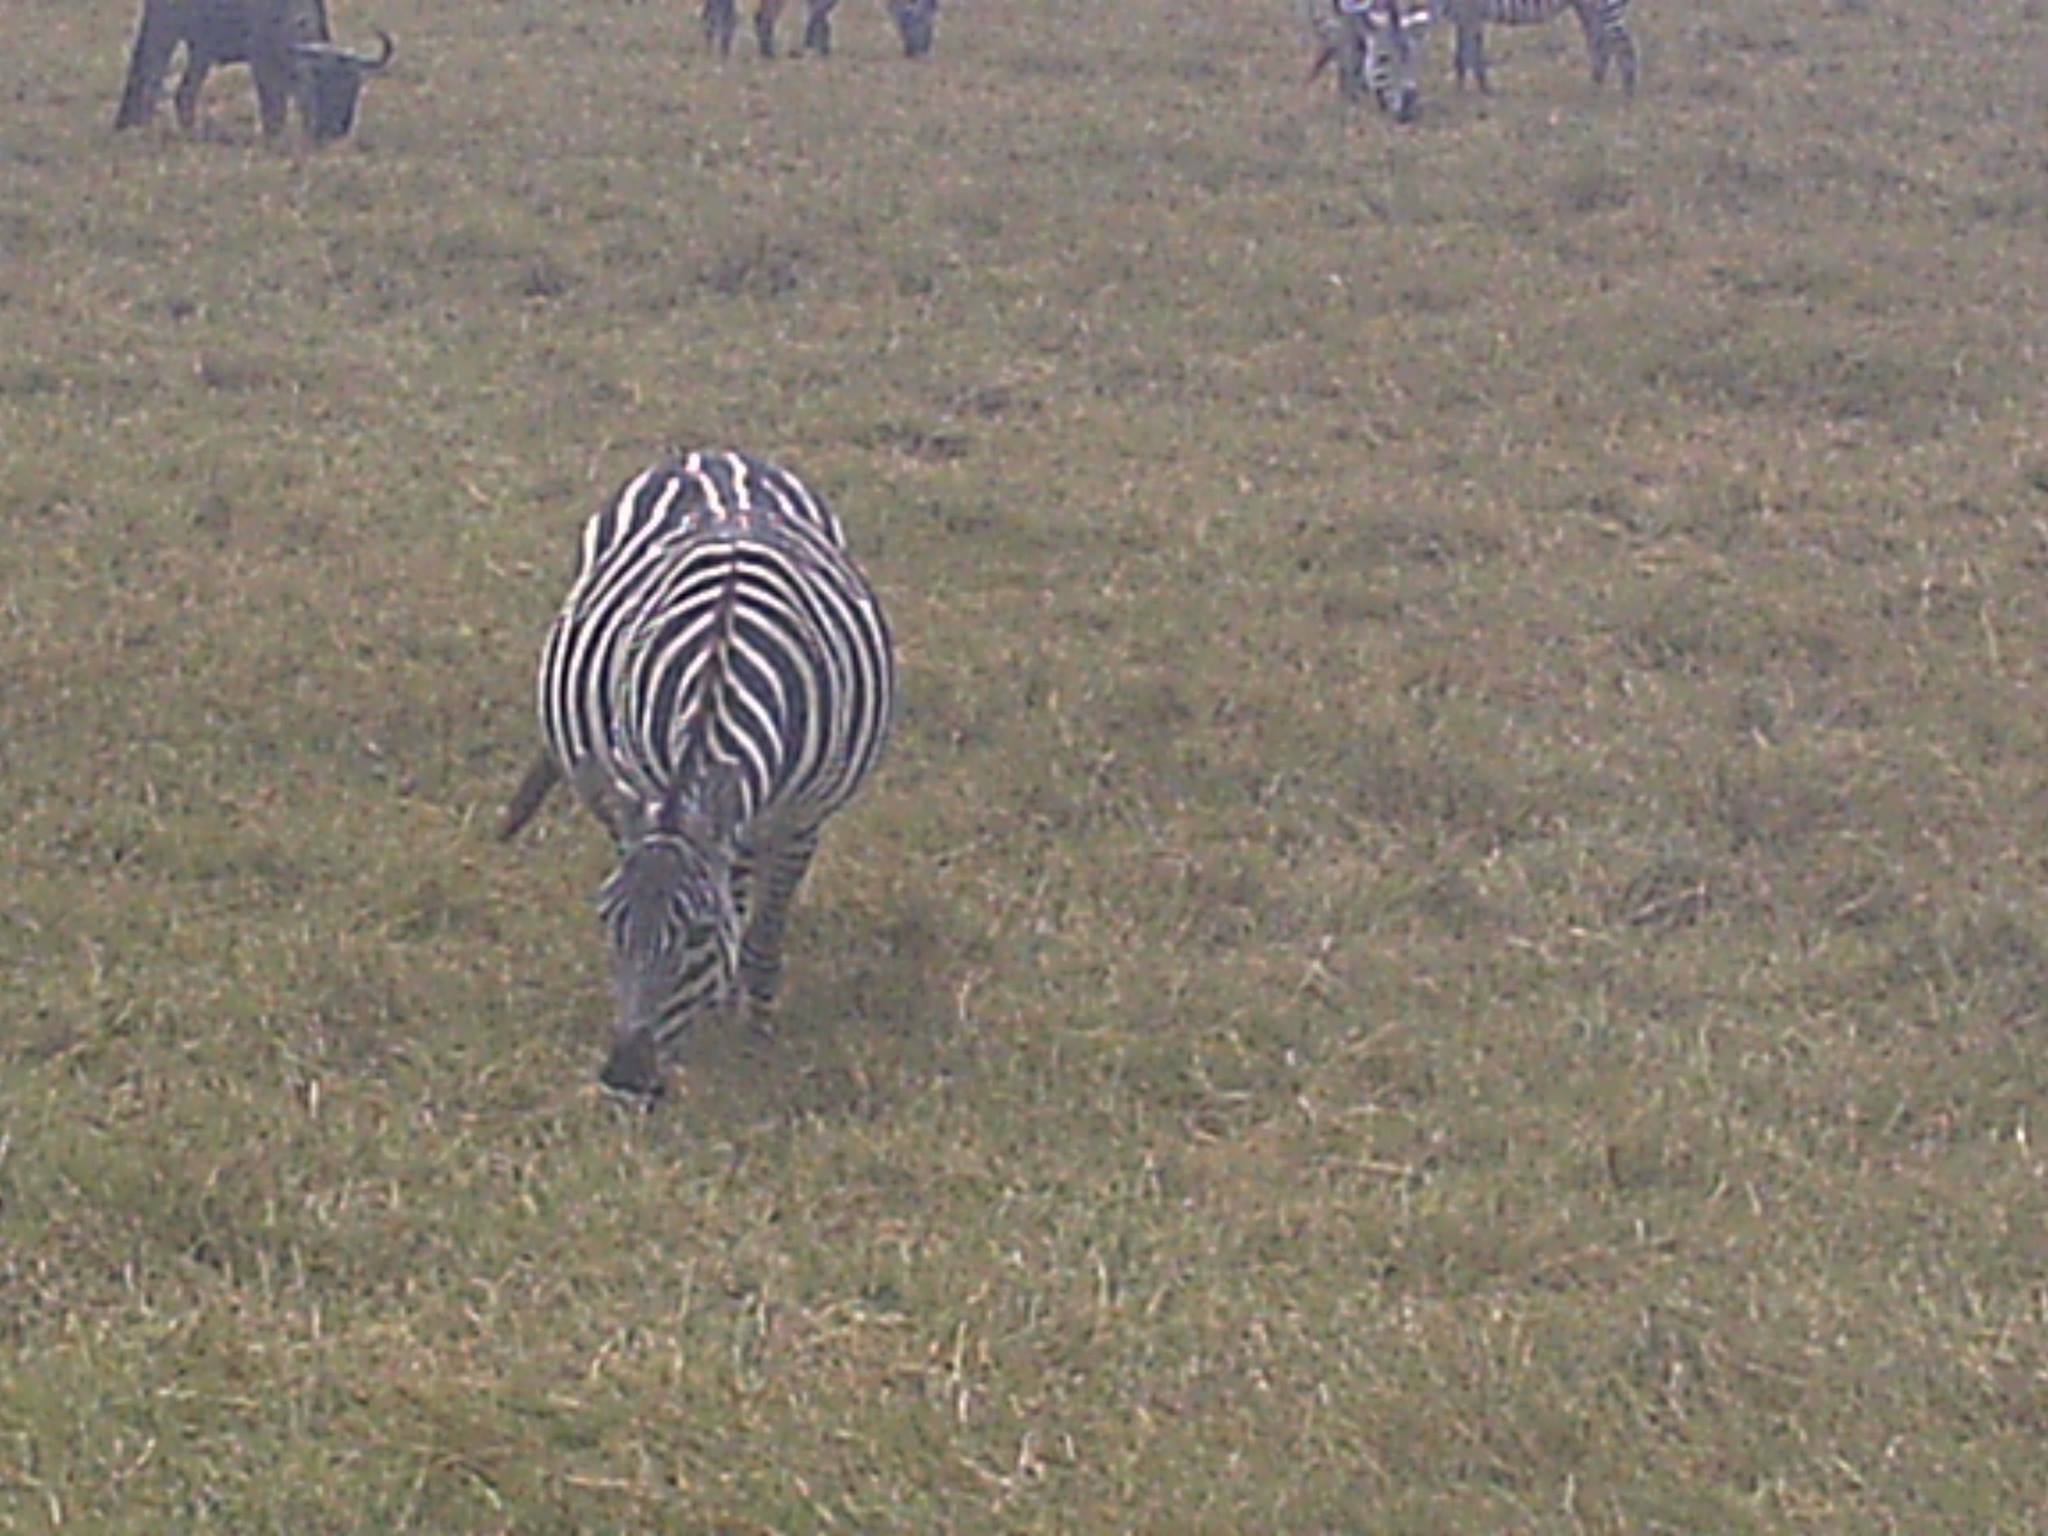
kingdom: Animalia
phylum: Chordata
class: Mammalia
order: Perissodactyla
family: Equidae
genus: Equus
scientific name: Equus quagga
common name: Plains zebra
